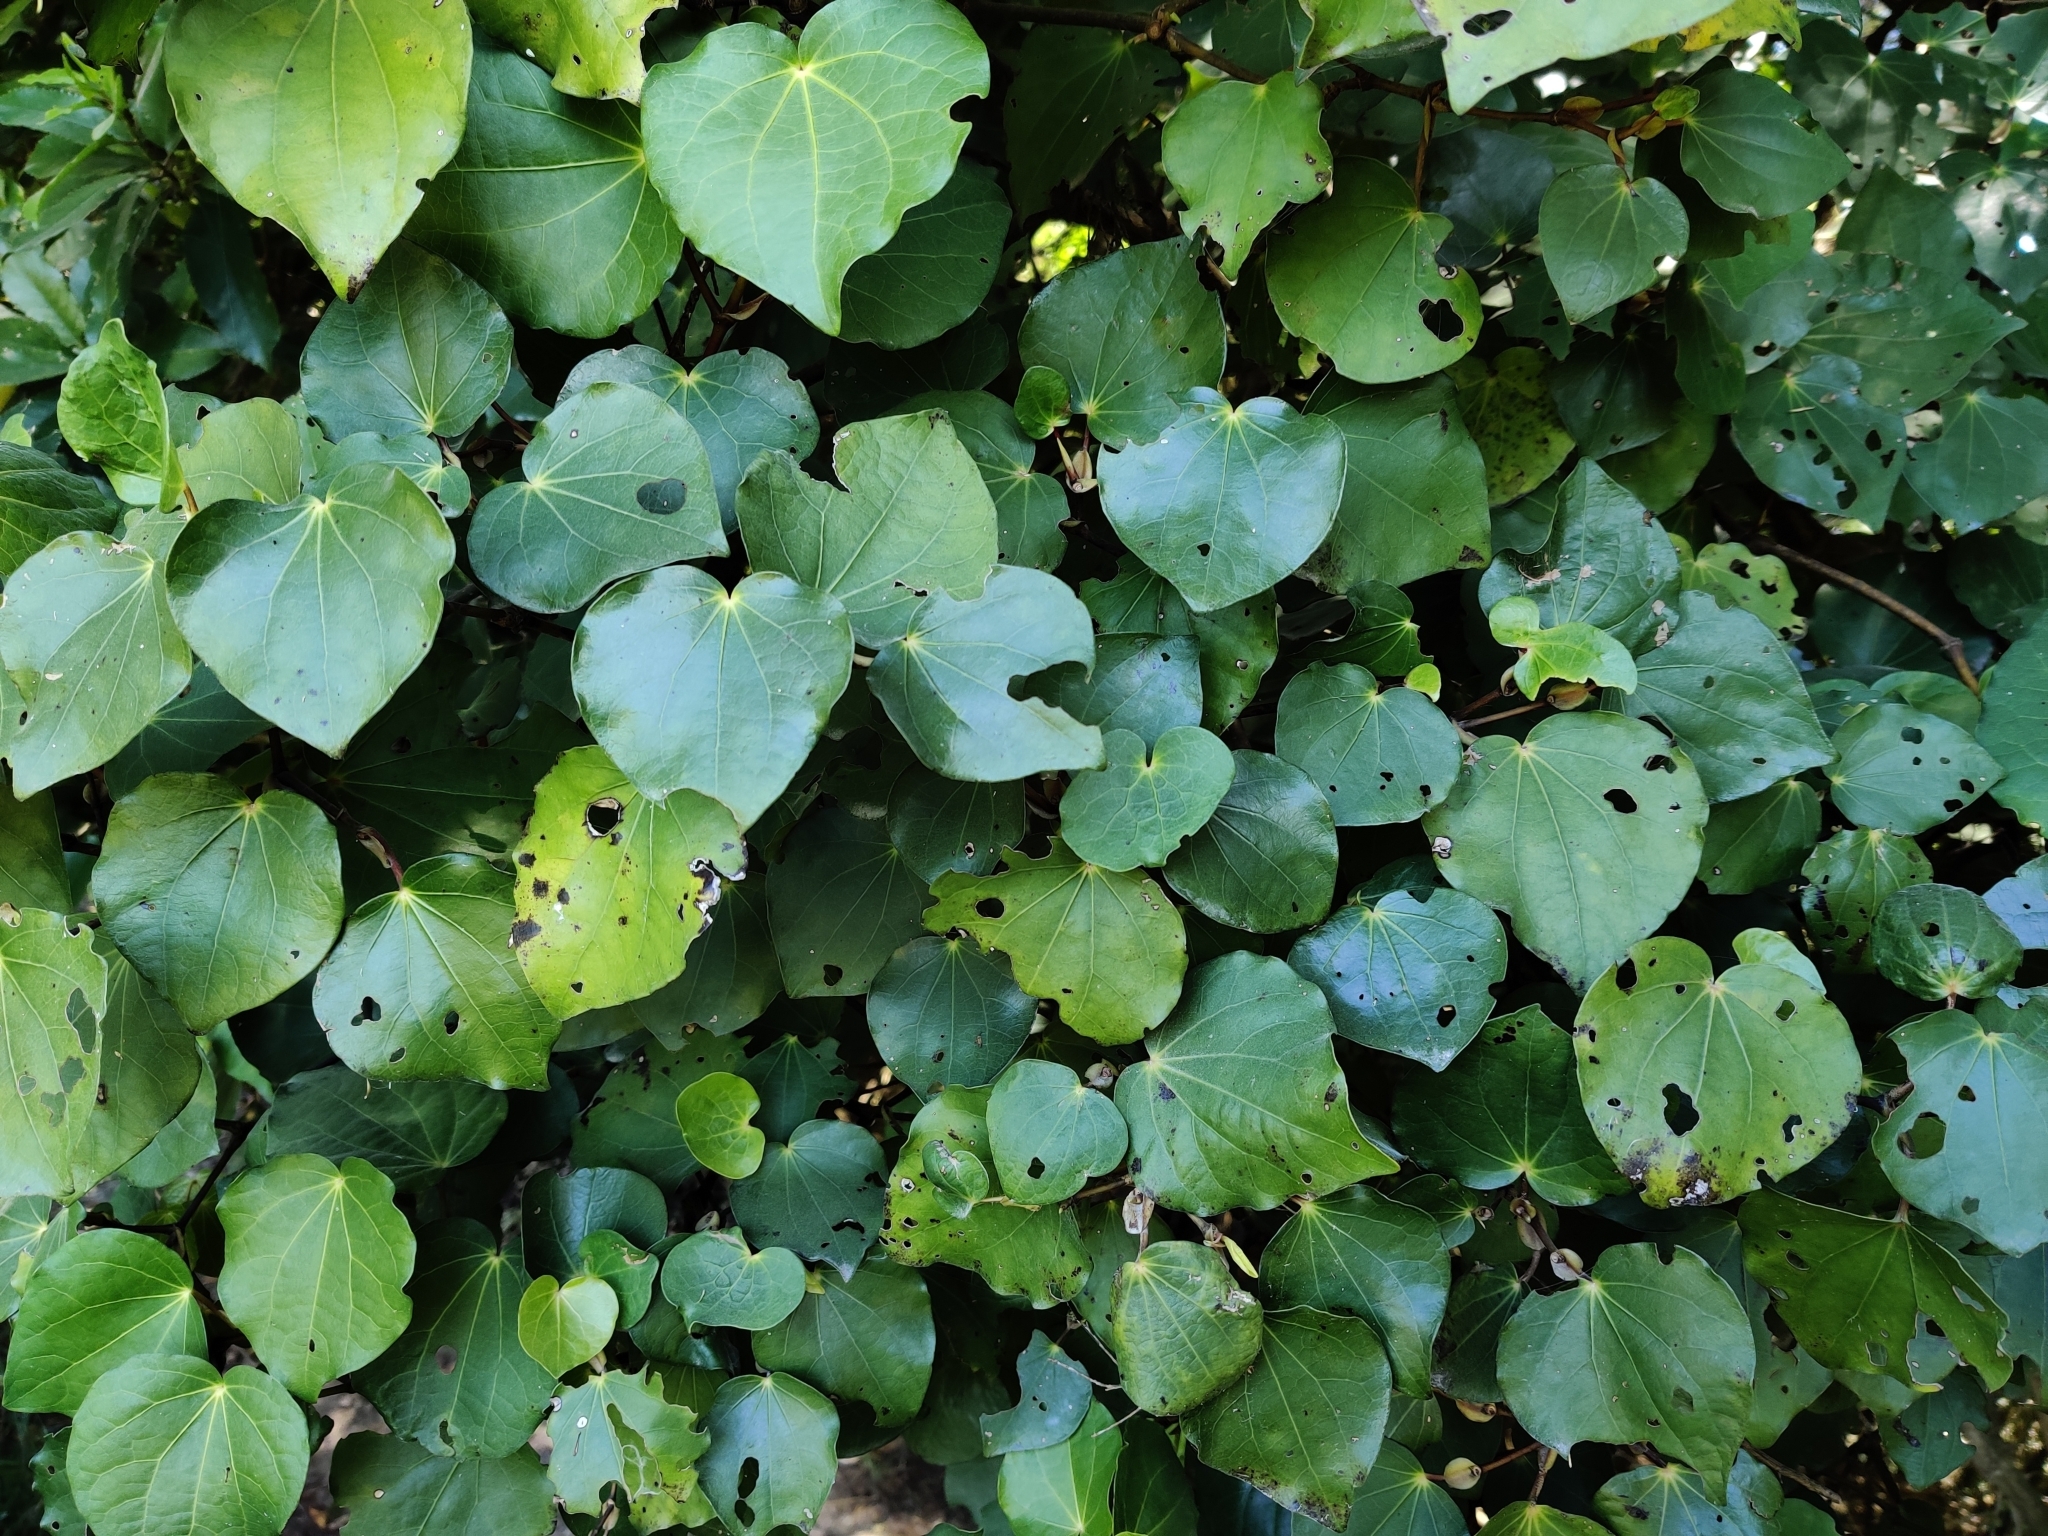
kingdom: Plantae
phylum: Tracheophyta
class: Magnoliopsida
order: Piperales
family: Piperaceae
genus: Macropiper
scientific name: Macropiper excelsum
